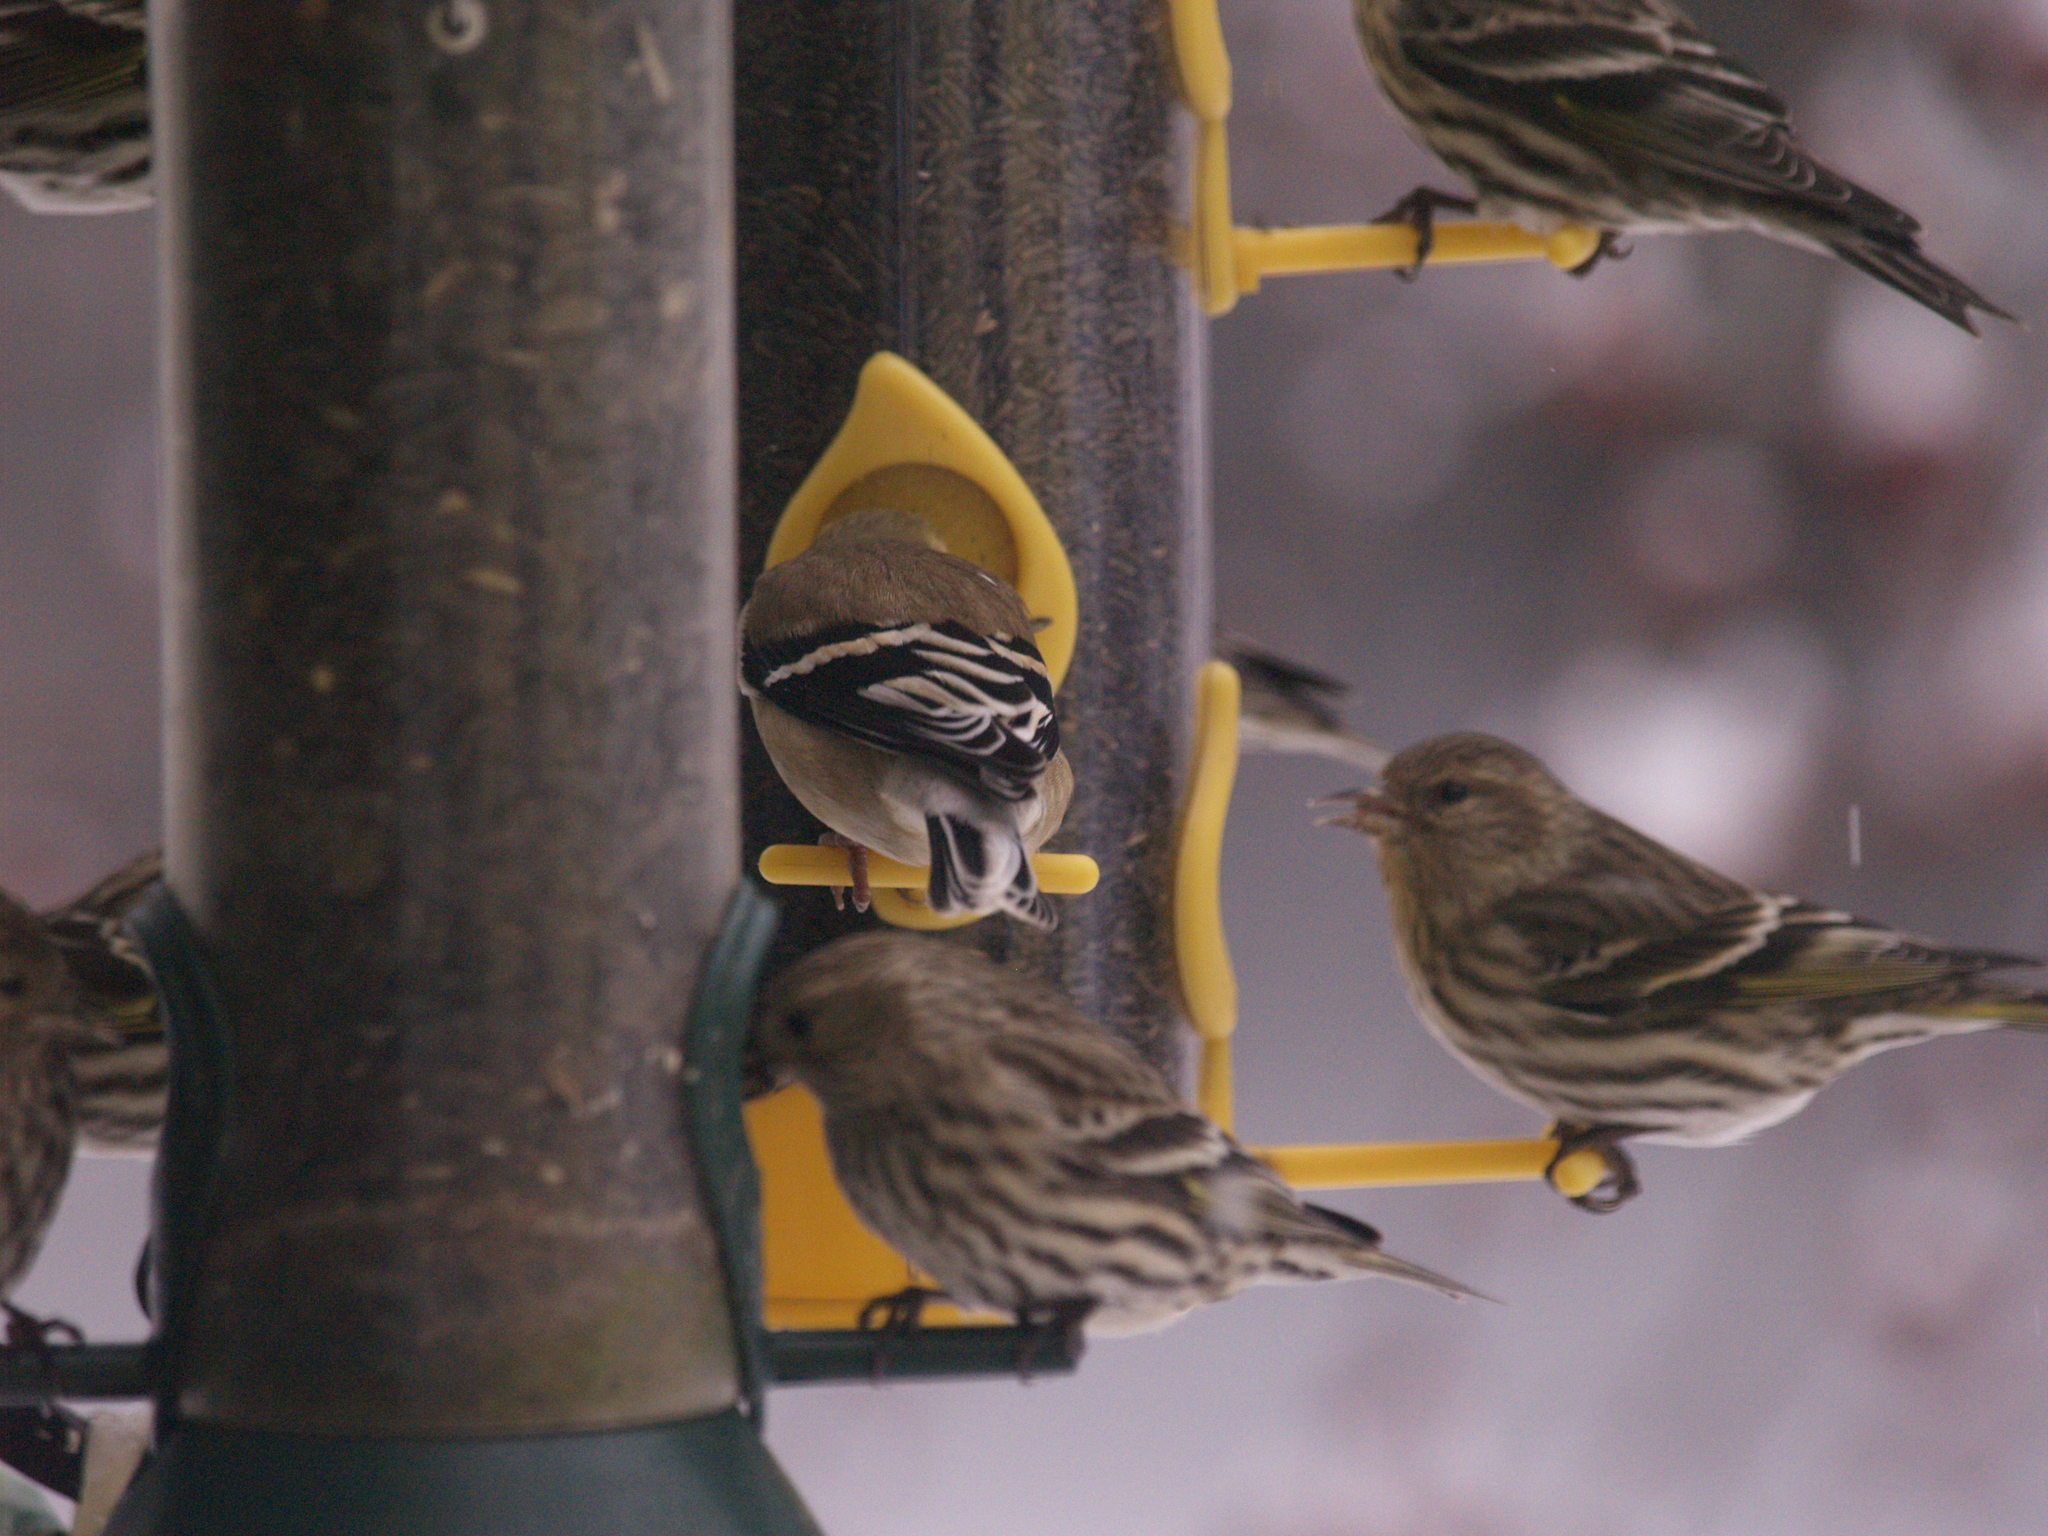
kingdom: Animalia
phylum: Chordata
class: Aves
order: Passeriformes
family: Fringillidae
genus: Spinus
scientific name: Spinus tristis
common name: American goldfinch
